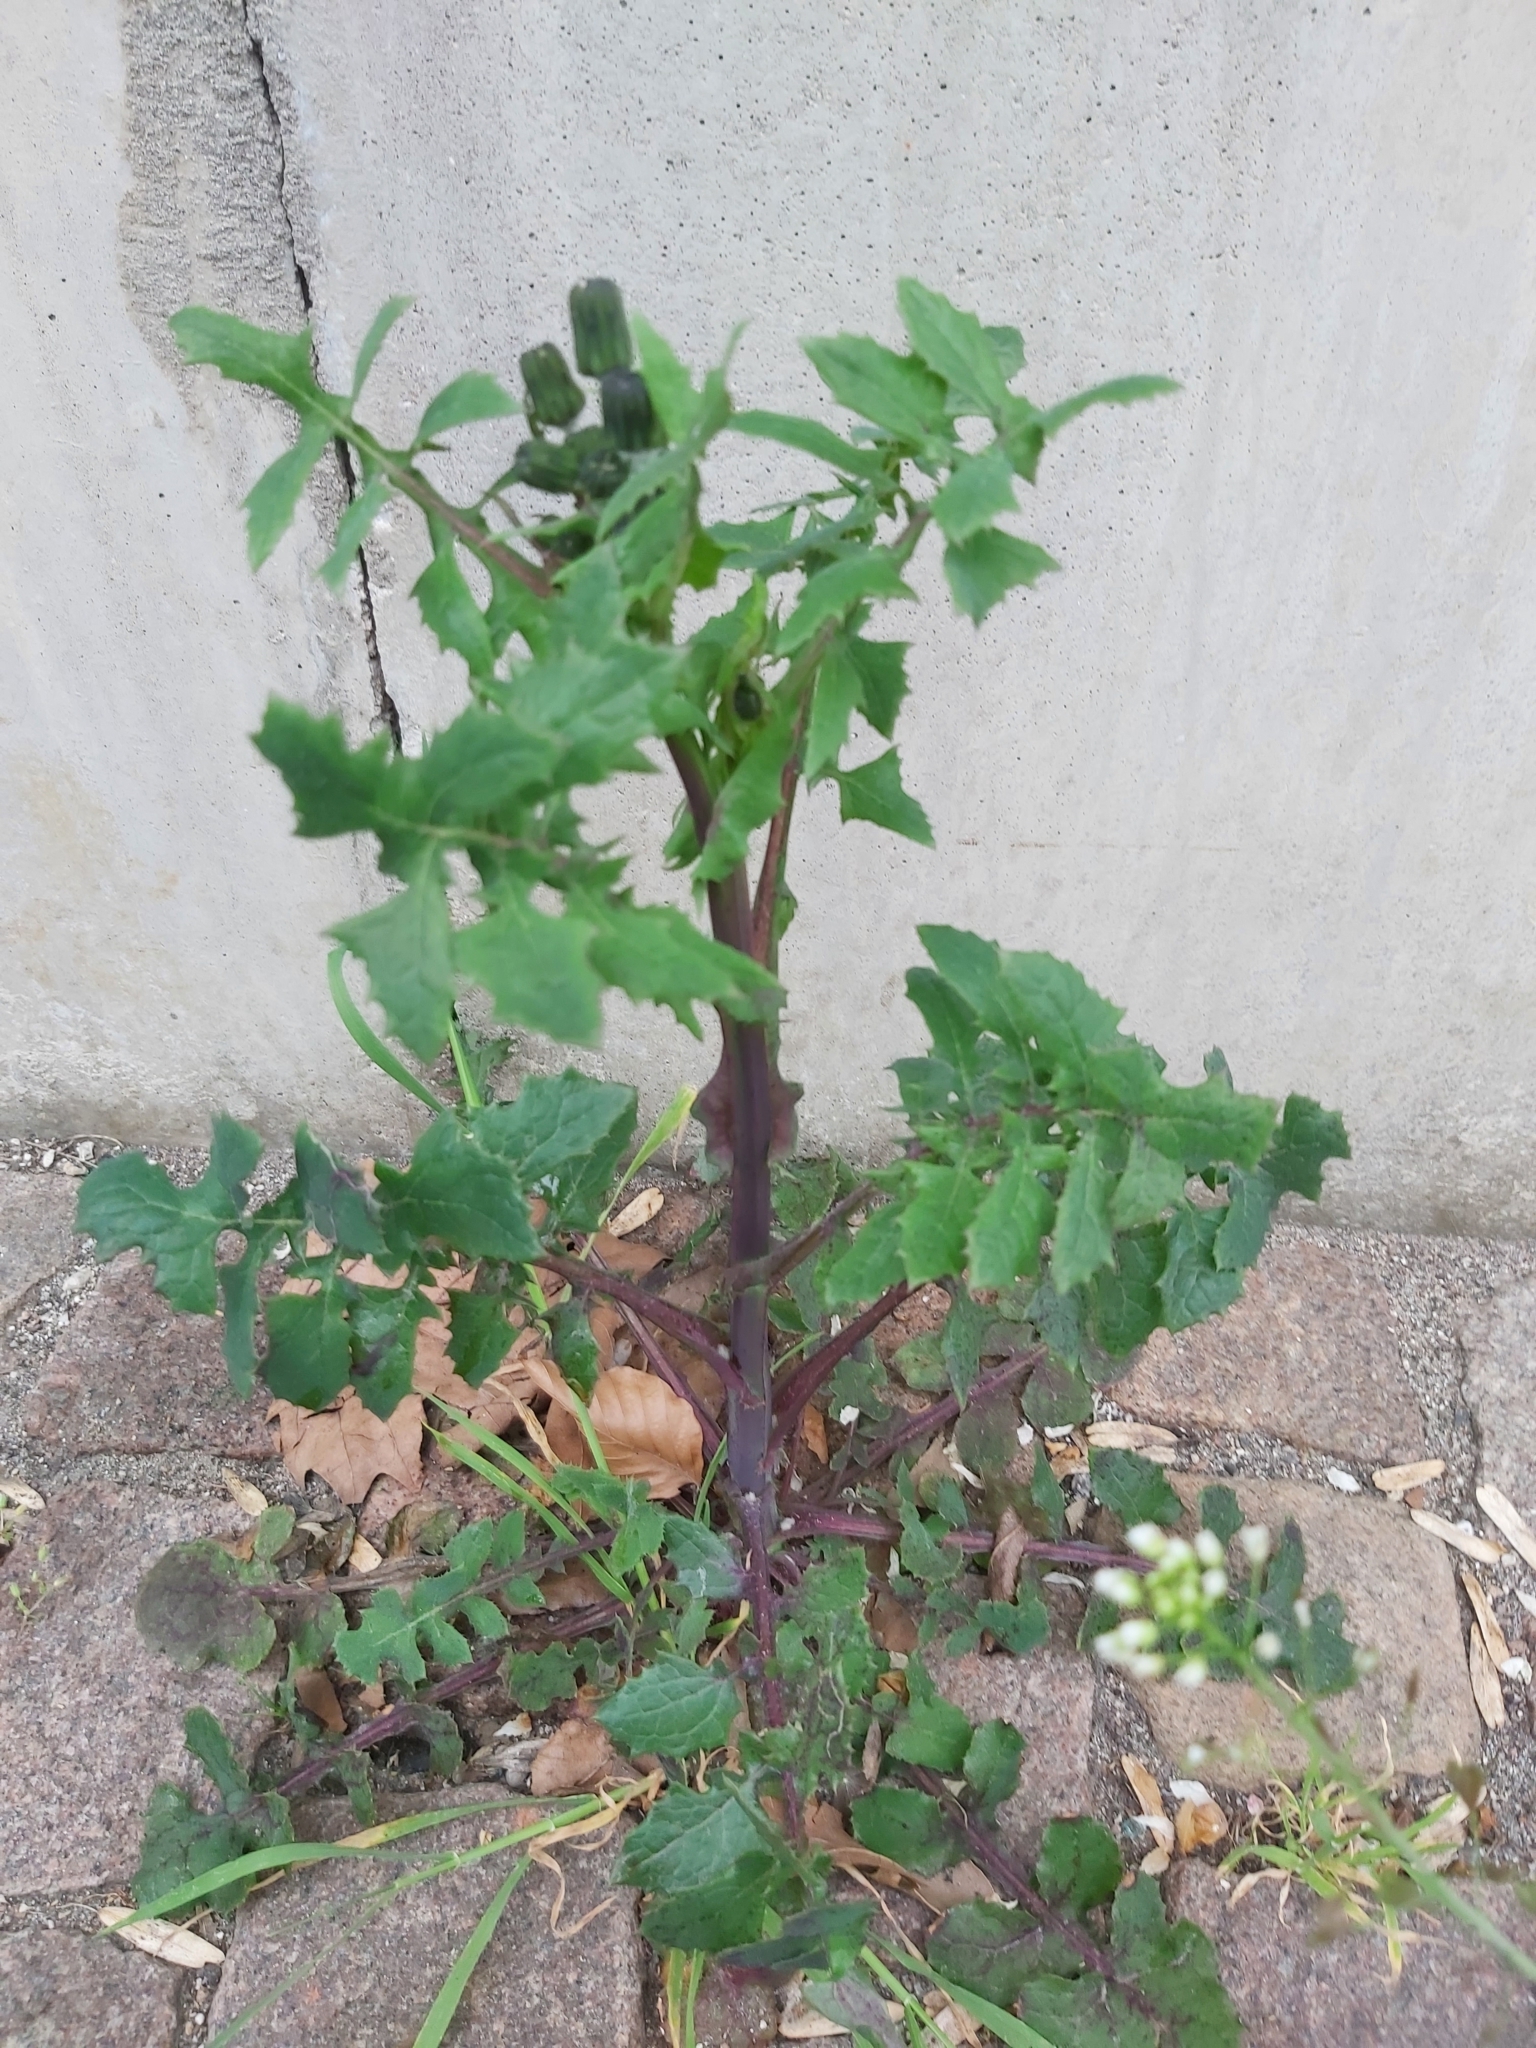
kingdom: Plantae
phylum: Tracheophyta
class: Magnoliopsida
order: Asterales
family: Asteraceae
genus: Sonchus
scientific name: Sonchus oleraceus
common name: Common sowthistle
